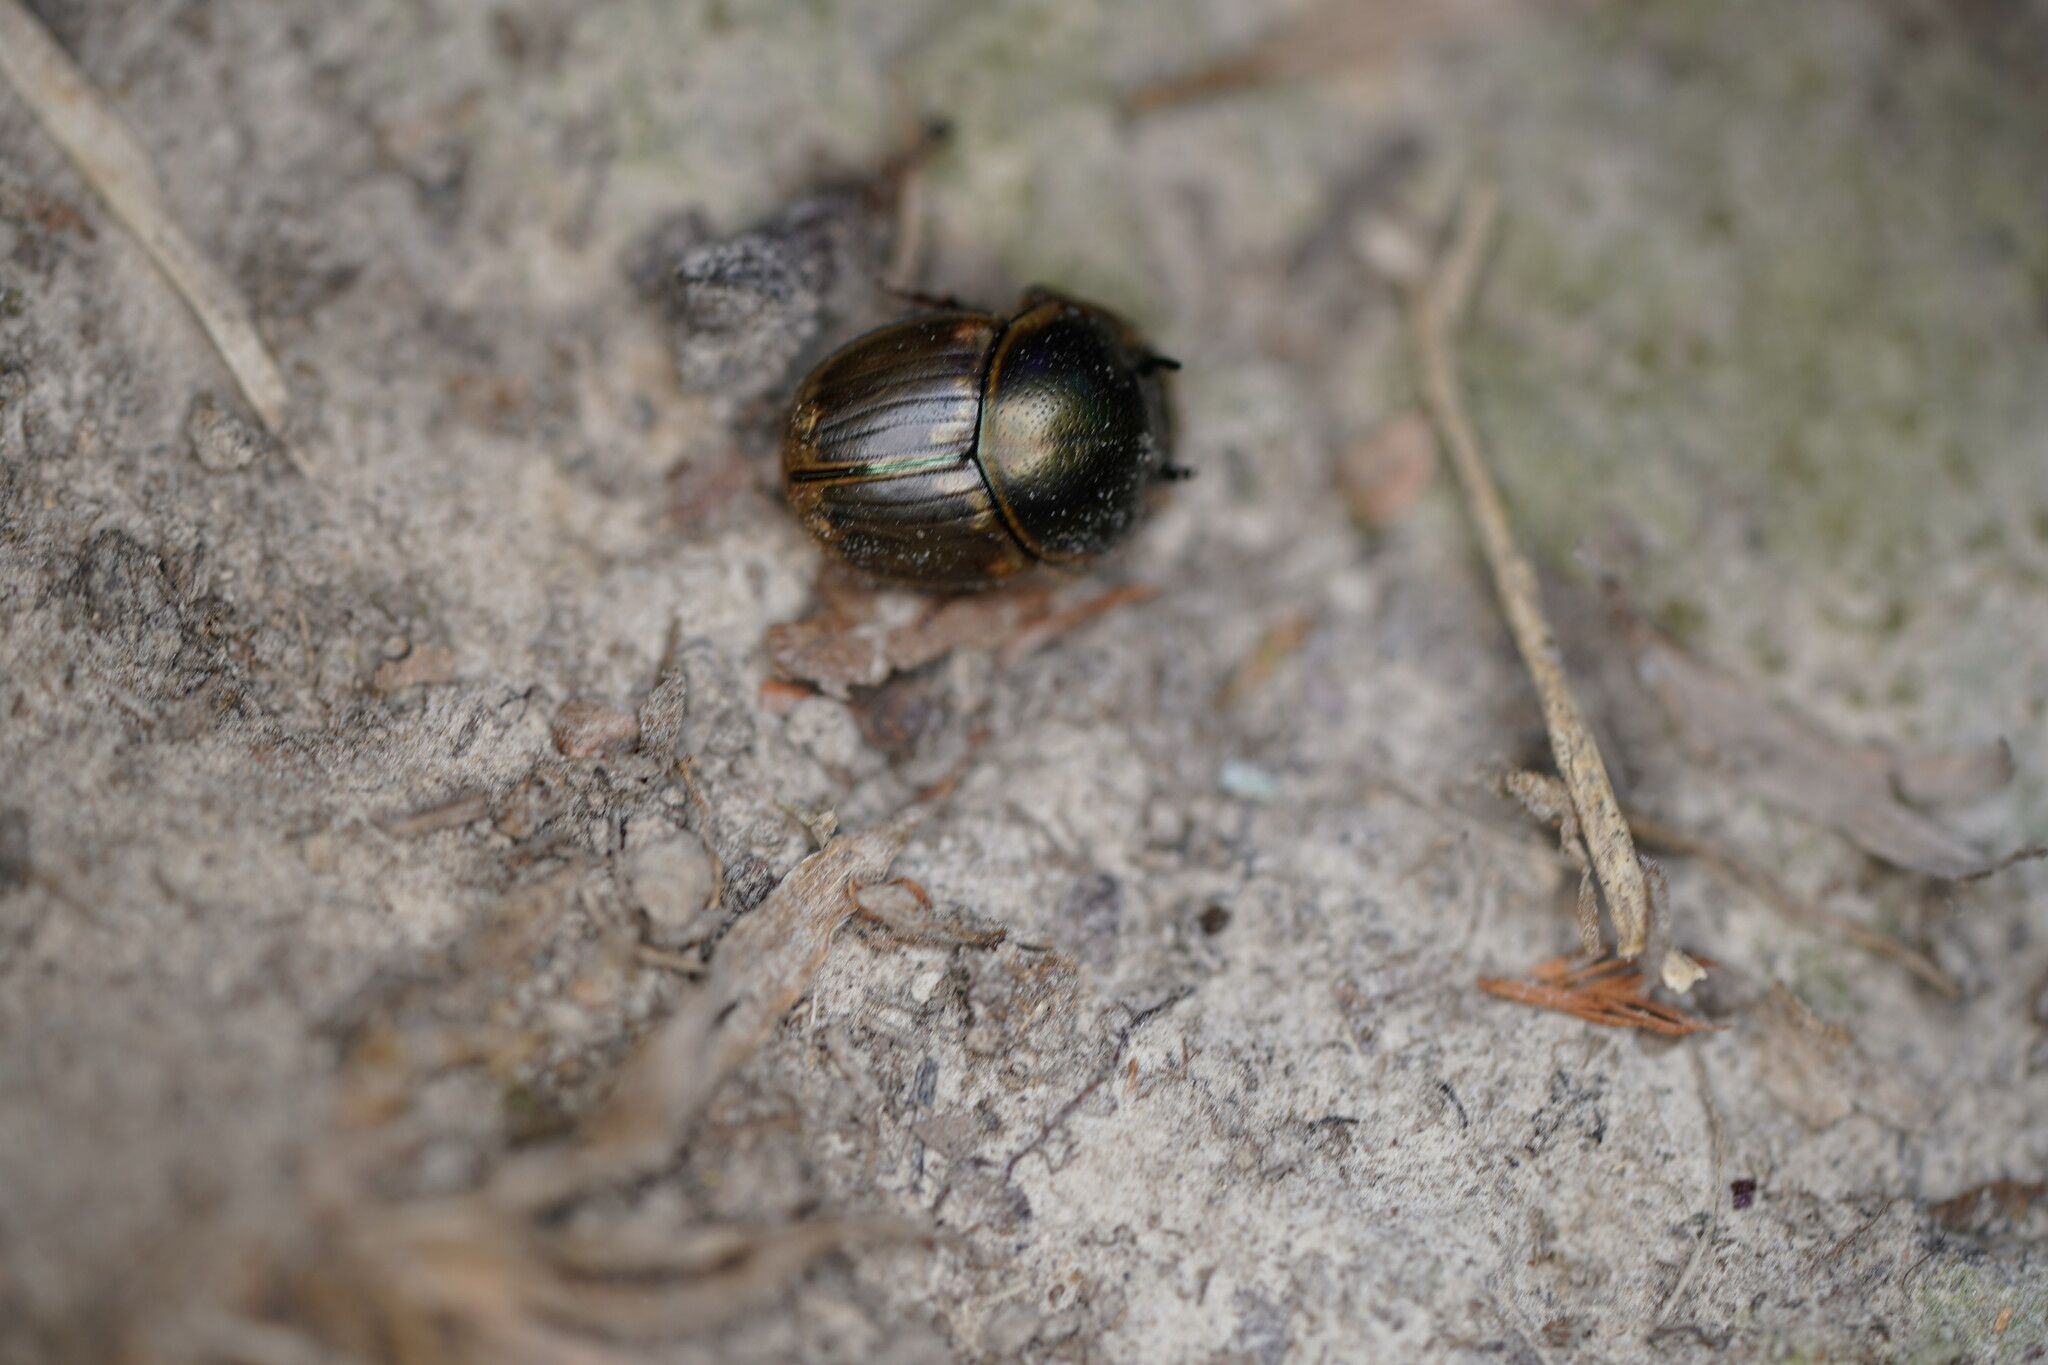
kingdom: Animalia
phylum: Arthropoda
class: Insecta
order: Coleoptera
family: Scarabaeidae
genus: Digitonthophagus
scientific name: Digitonthophagus gazella
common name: Brown dung beetle
